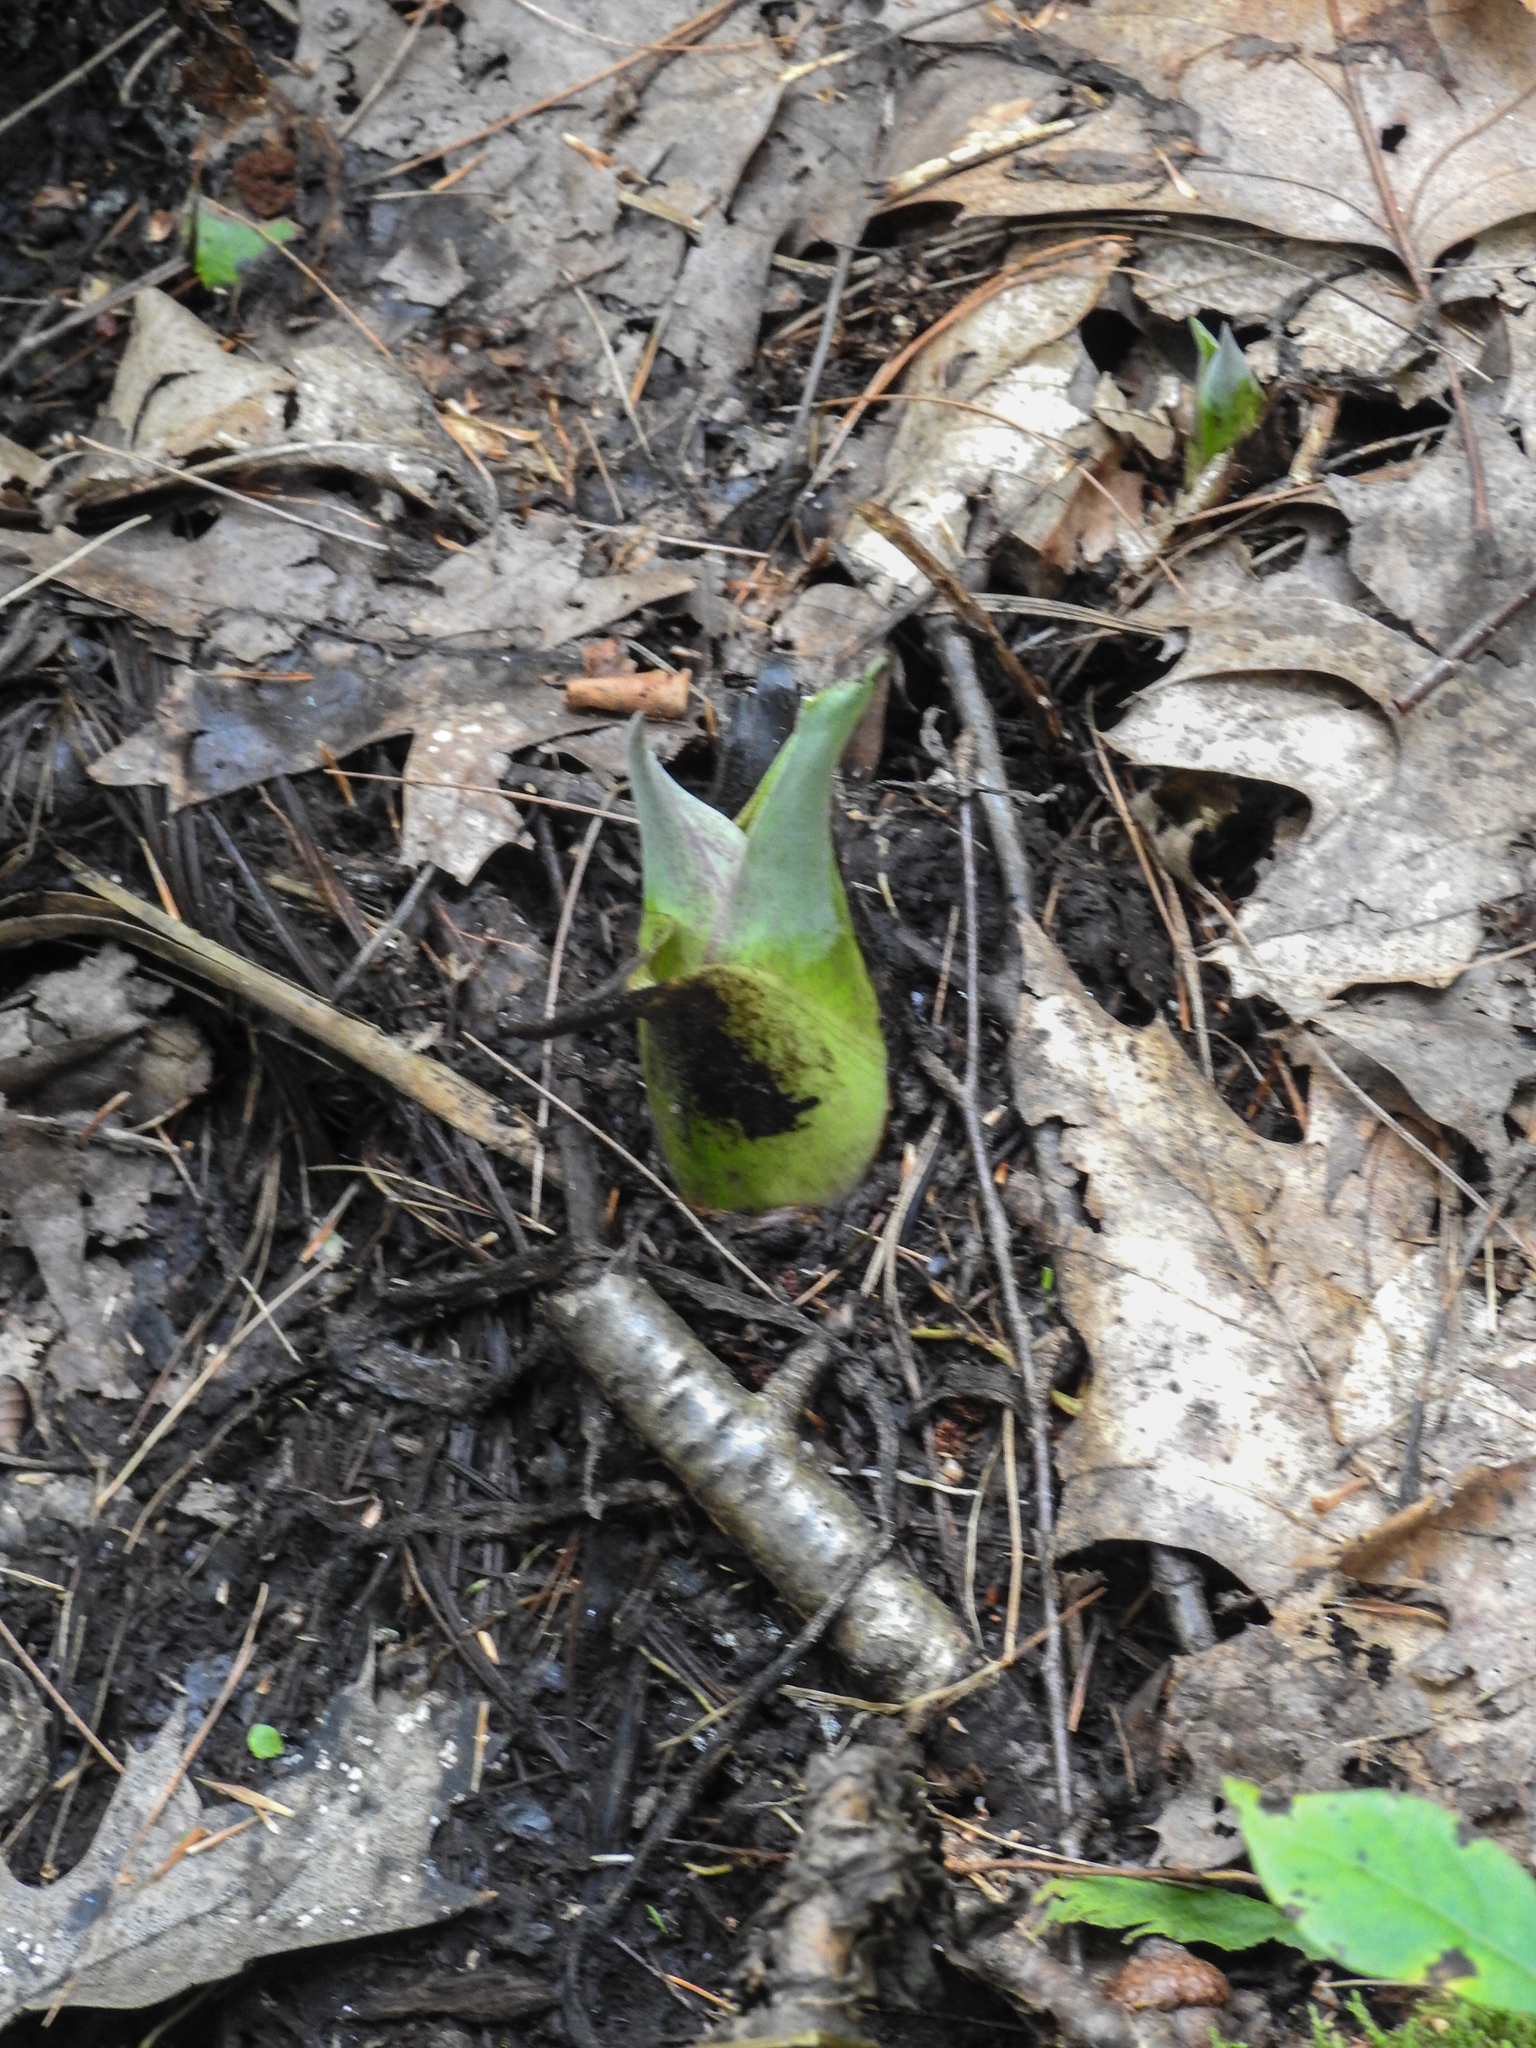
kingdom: Plantae
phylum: Tracheophyta
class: Liliopsida
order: Alismatales
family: Araceae
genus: Symplocarpus
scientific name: Symplocarpus foetidus
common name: Eastern skunk cabbage
